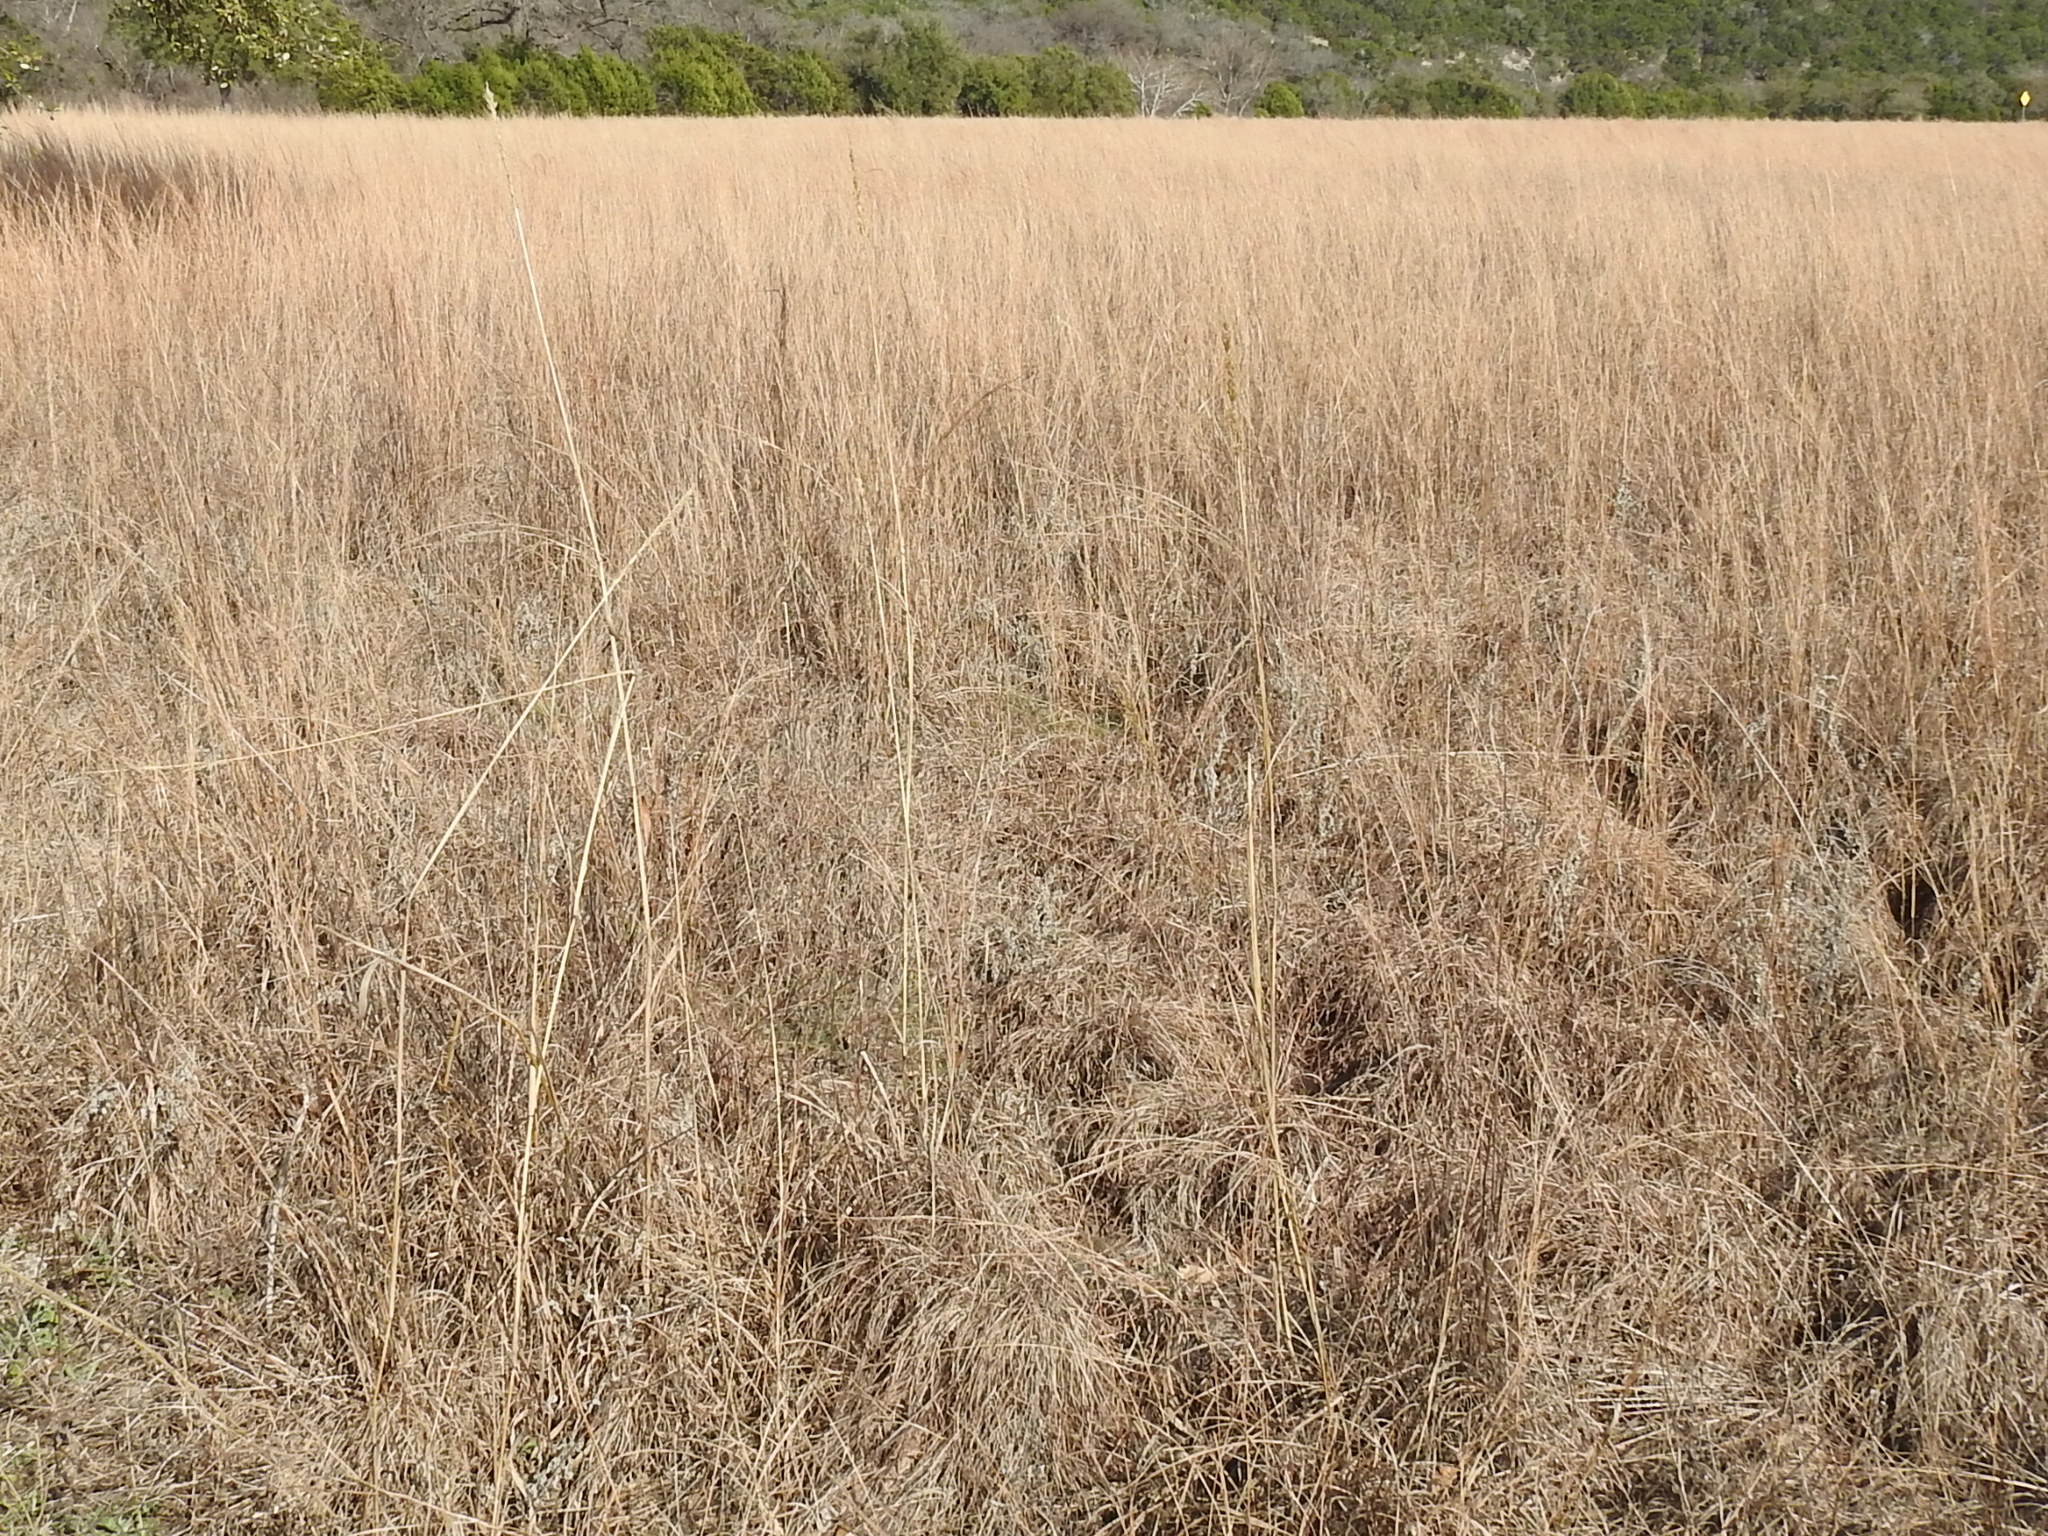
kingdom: Plantae
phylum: Tracheophyta
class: Liliopsida
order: Poales
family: Poaceae
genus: Sorghastrum
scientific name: Sorghastrum nutans
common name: Indian grass
